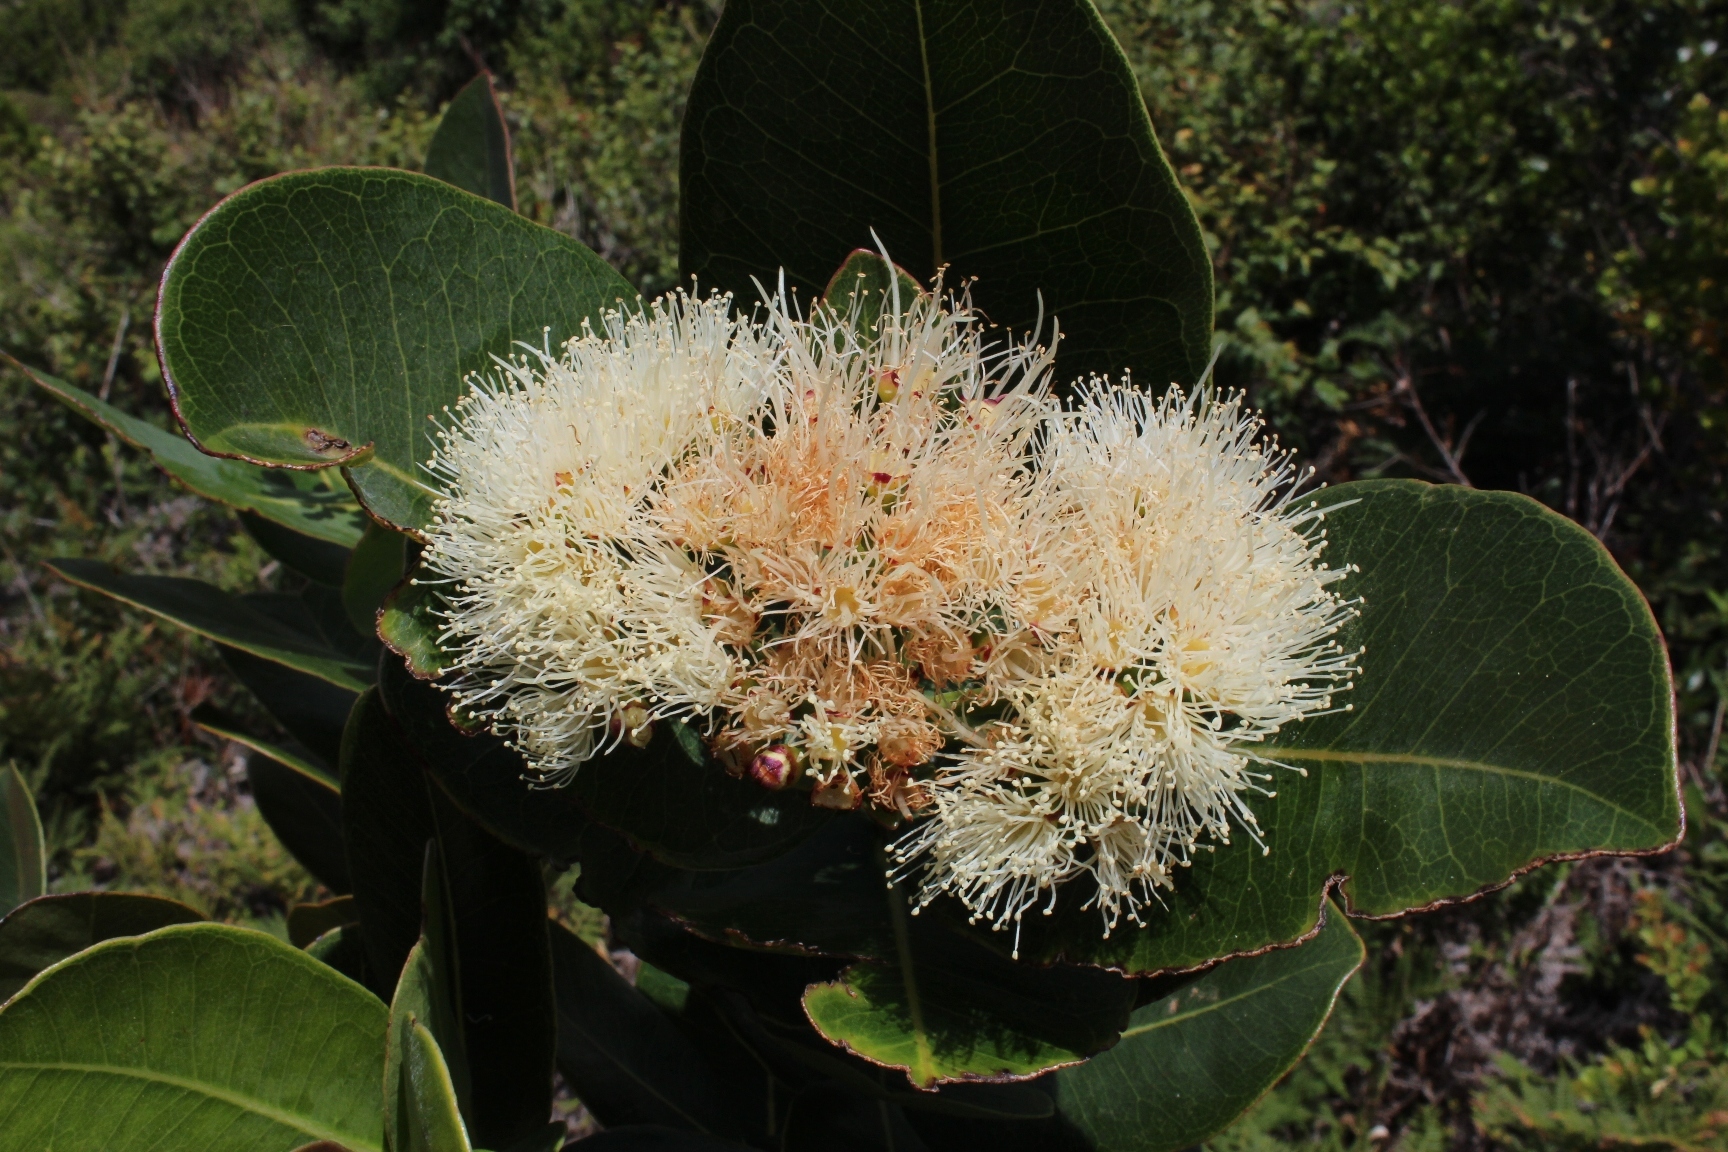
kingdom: Plantae
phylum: Tracheophyta
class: Magnoliopsida
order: Myrtales
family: Myrtaceae
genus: Syzygium
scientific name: Syzygium cordatum
